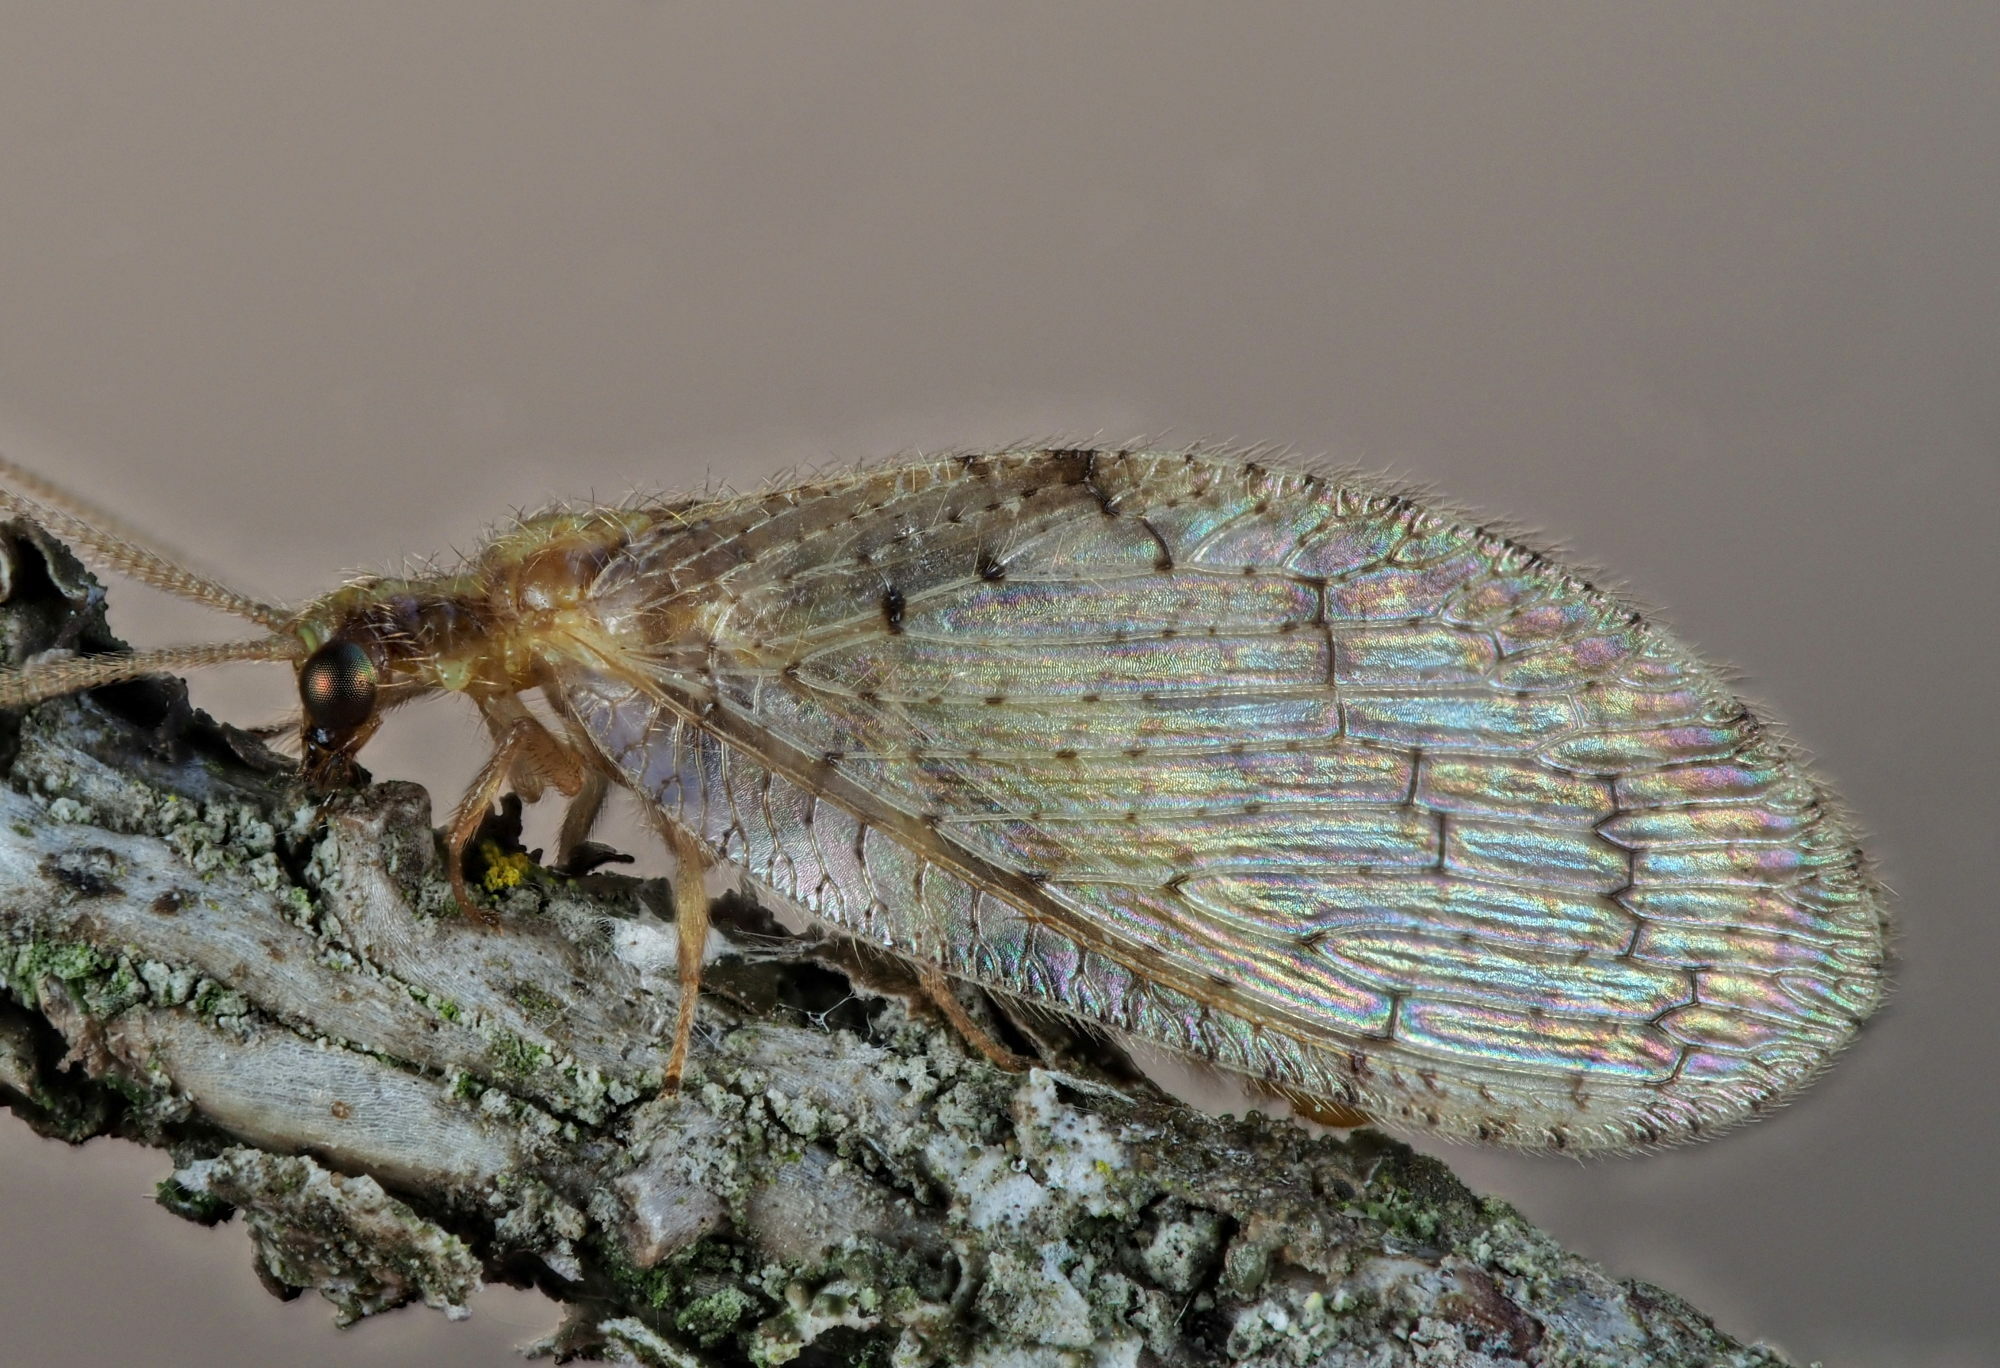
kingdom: Animalia
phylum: Arthropoda
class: Insecta
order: Neuroptera
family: Hemerobiidae
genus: Hemerobius
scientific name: Hemerobius humulinus
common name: Humulin brown lacewing
